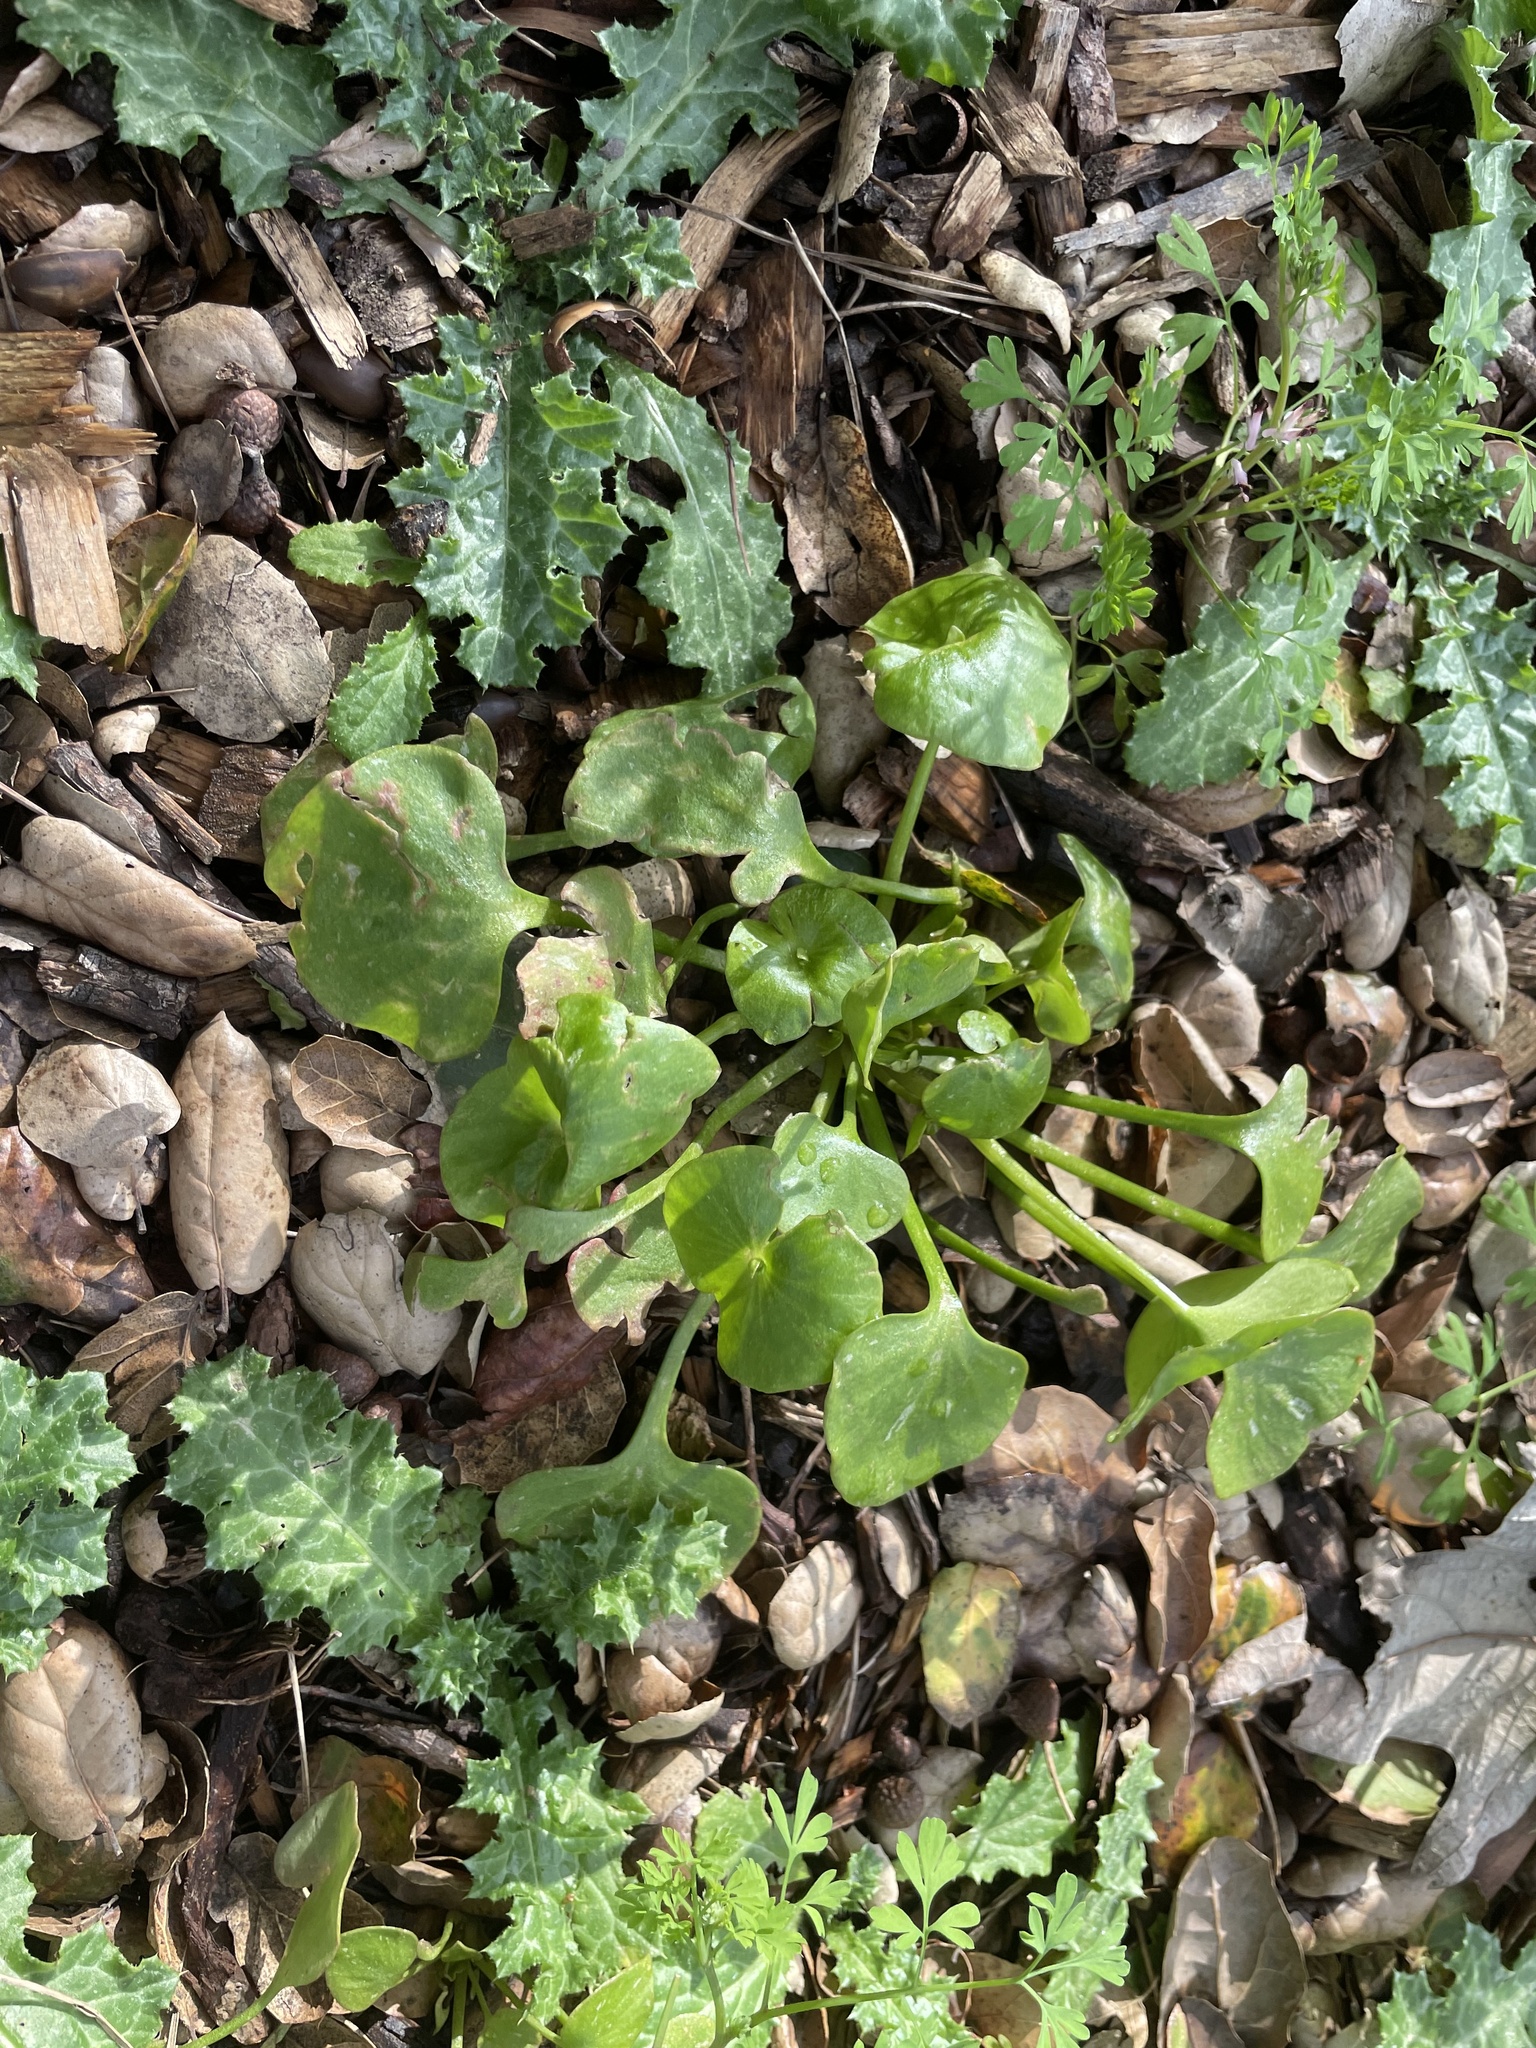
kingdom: Plantae
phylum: Tracheophyta
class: Magnoliopsida
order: Caryophyllales
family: Montiaceae
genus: Claytonia
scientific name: Claytonia perfoliata
